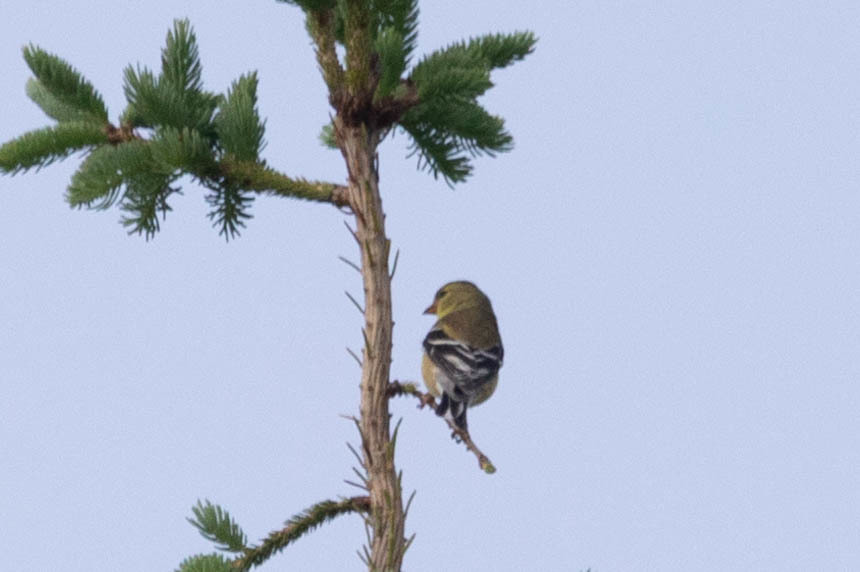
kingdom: Animalia
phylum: Chordata
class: Aves
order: Passeriformes
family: Fringillidae
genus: Spinus
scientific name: Spinus tristis
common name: American goldfinch
